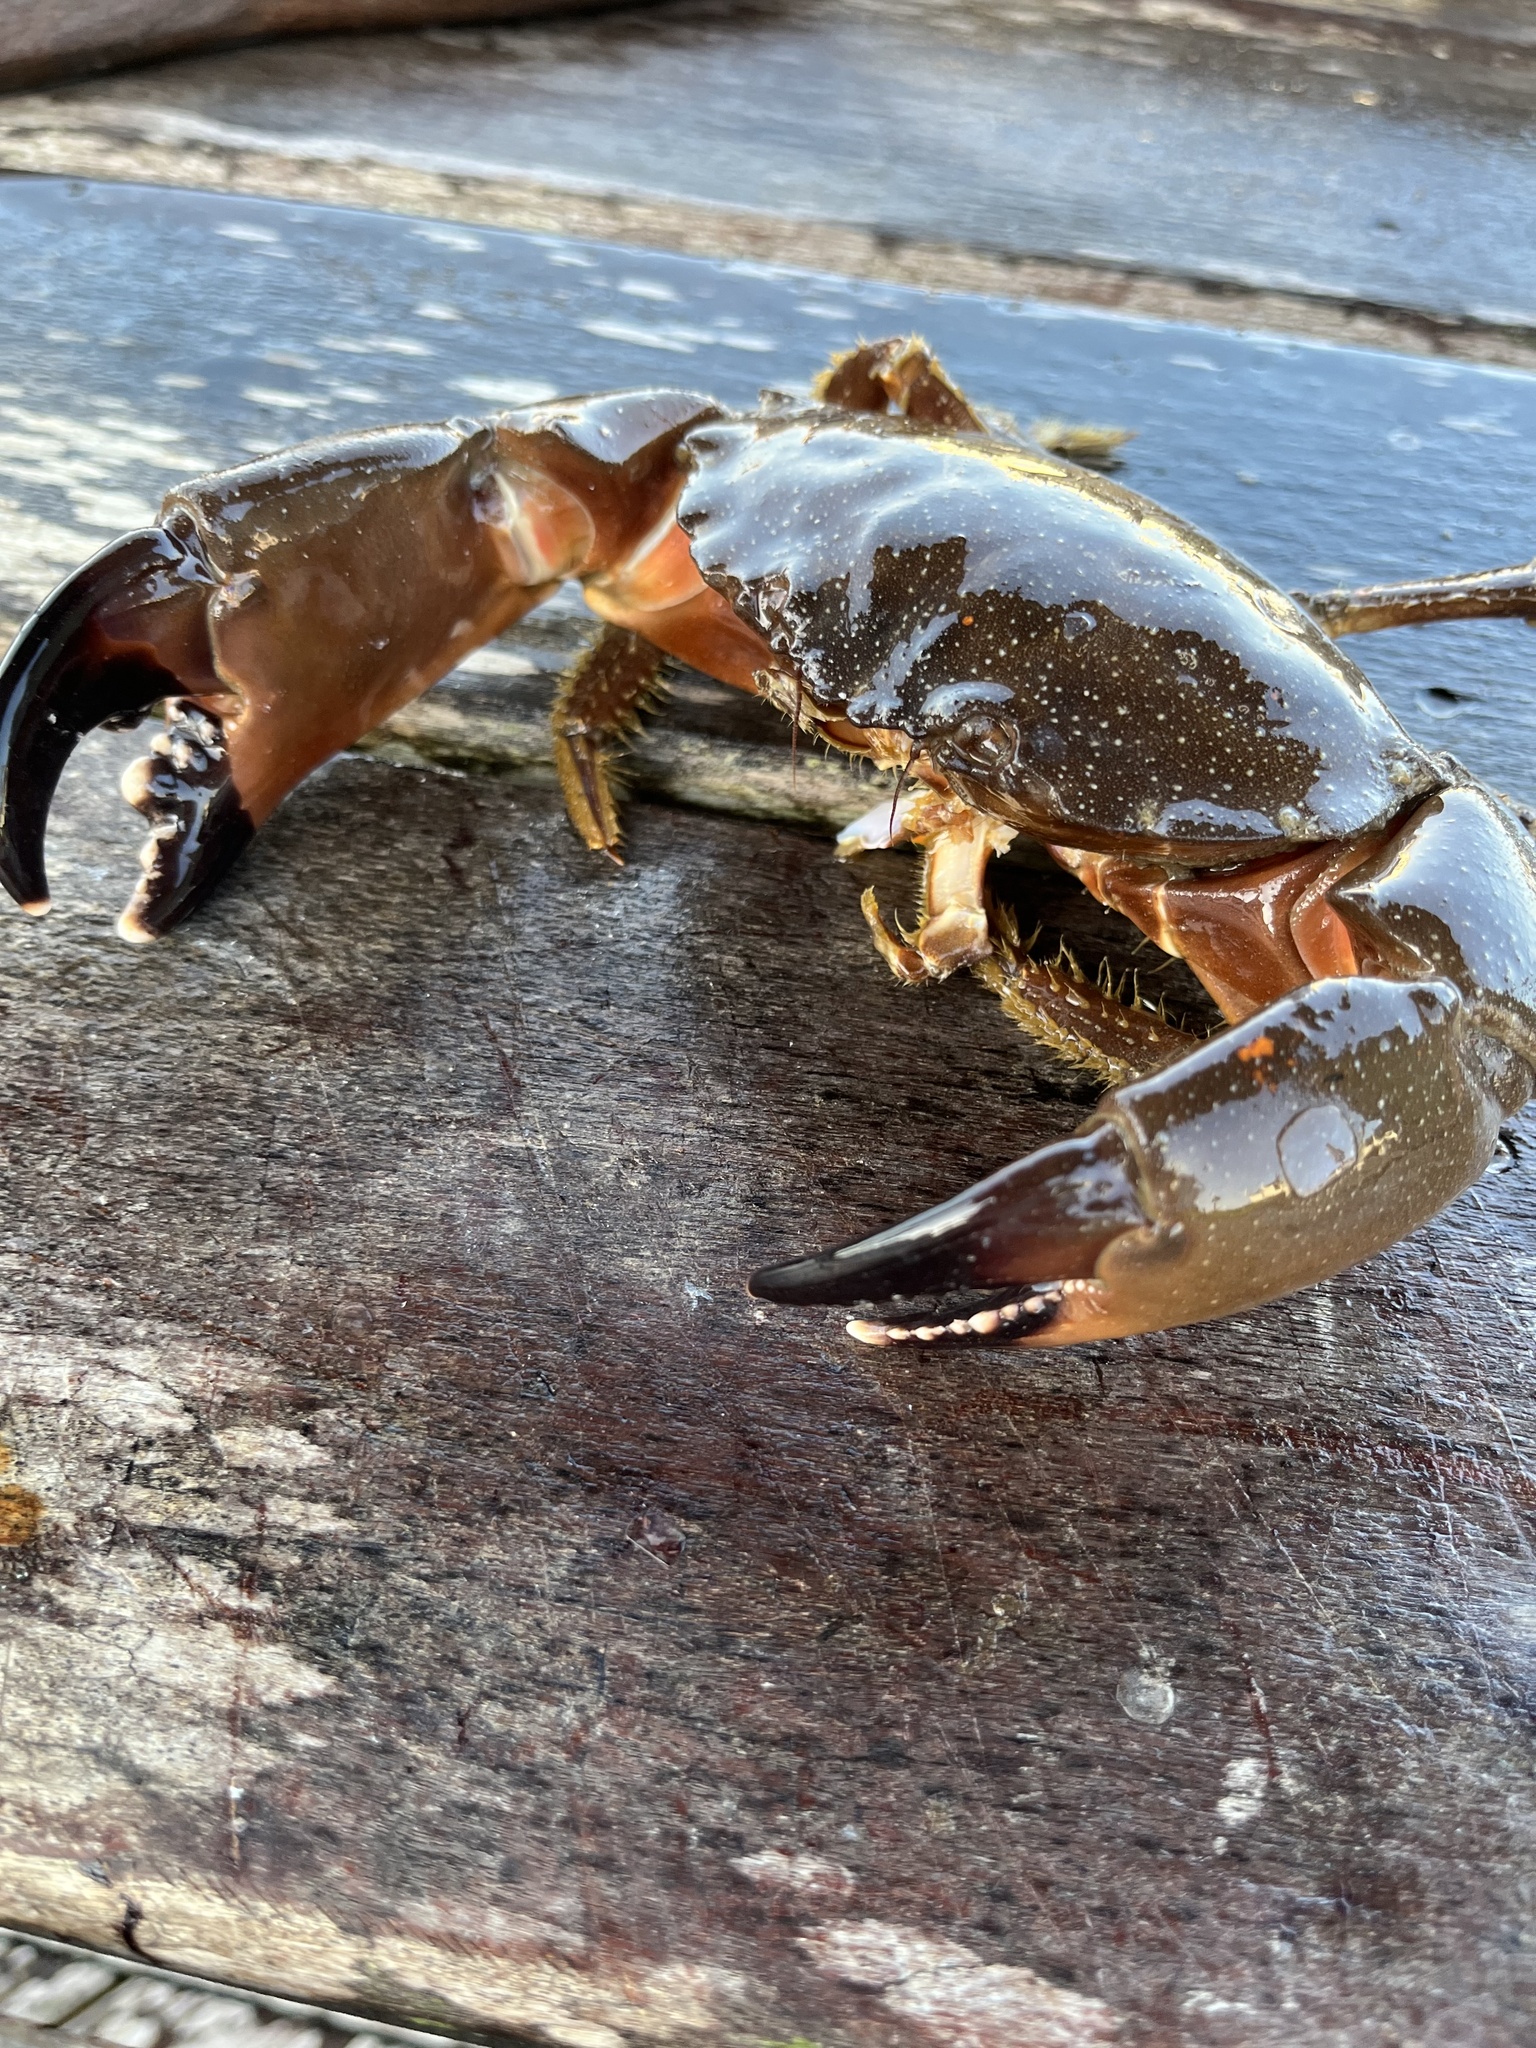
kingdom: Animalia
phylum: Arthropoda
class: Malacostraca
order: Decapoda
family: Menippidae
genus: Menippe
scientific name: Menippe adina
